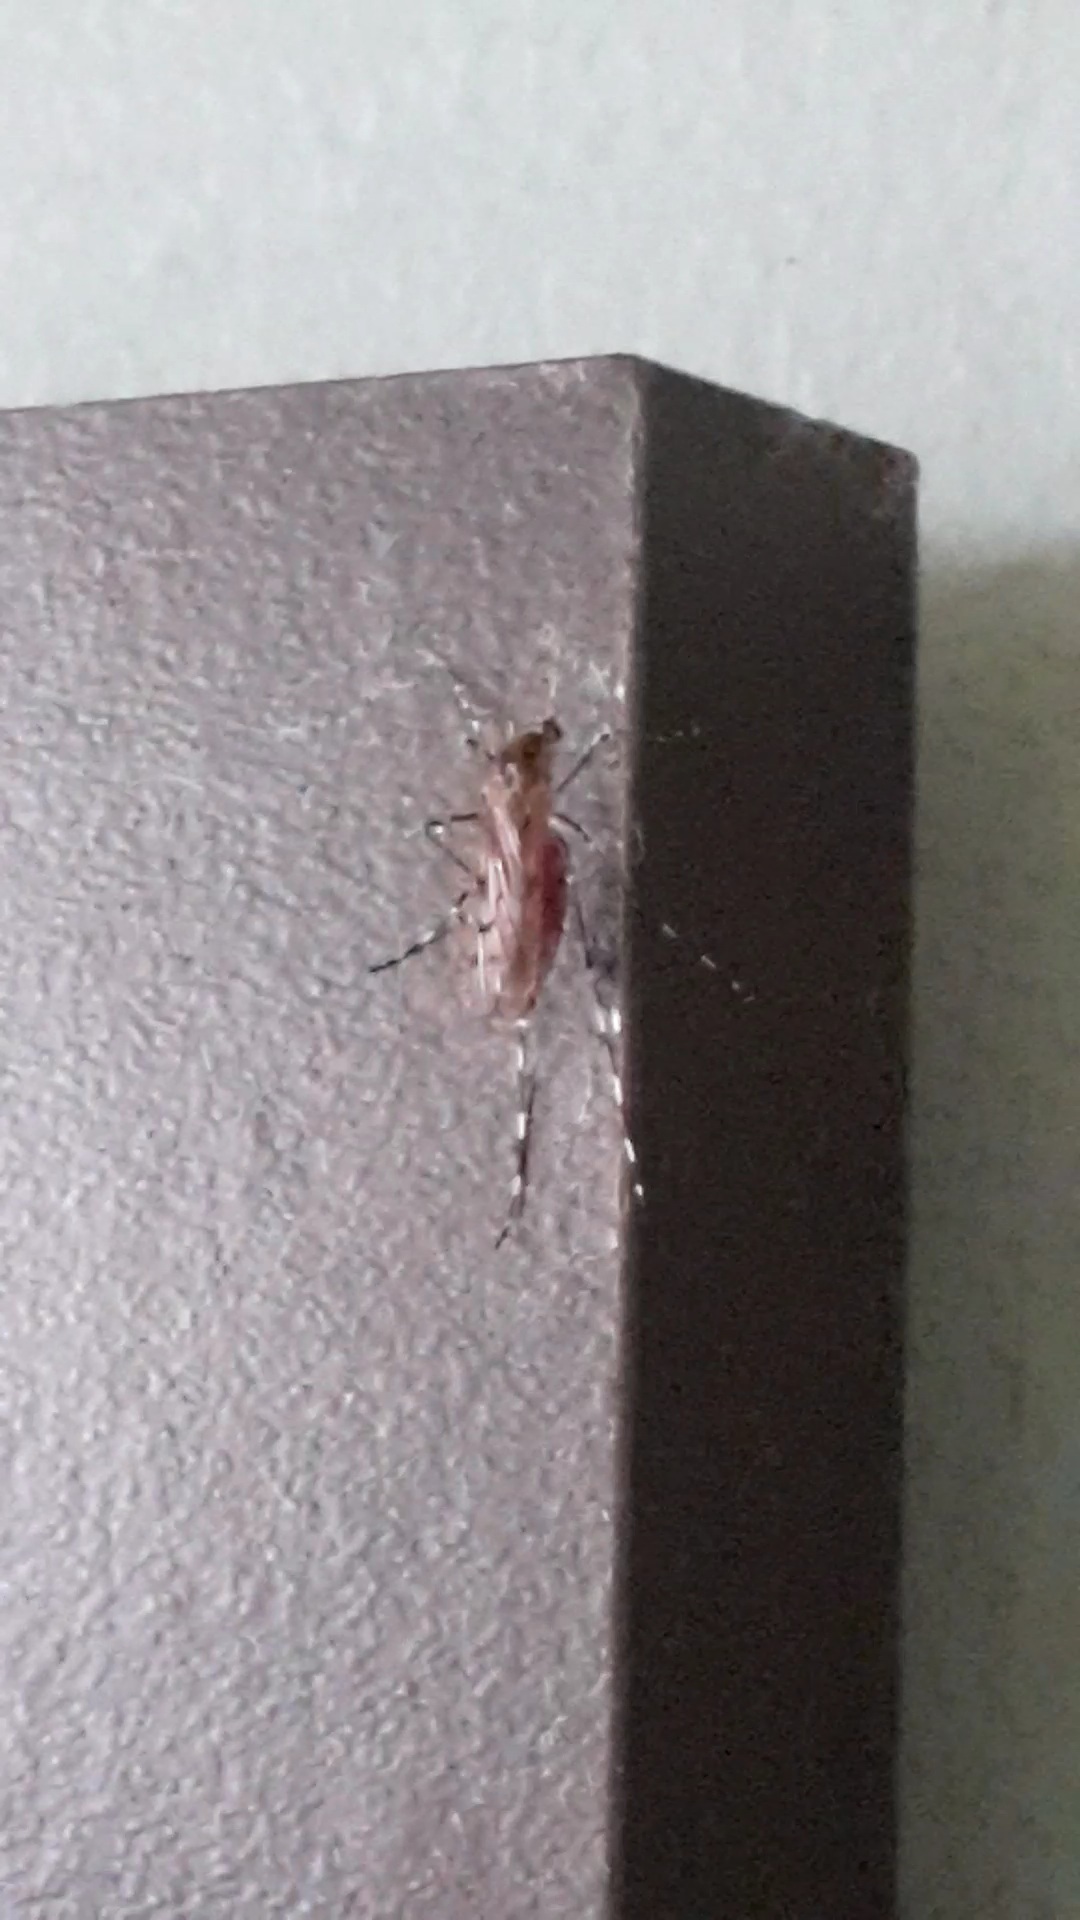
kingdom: Animalia
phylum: Arthropoda
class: Insecta
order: Diptera
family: Culicidae
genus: Culiseta
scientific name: Culiseta annulata
